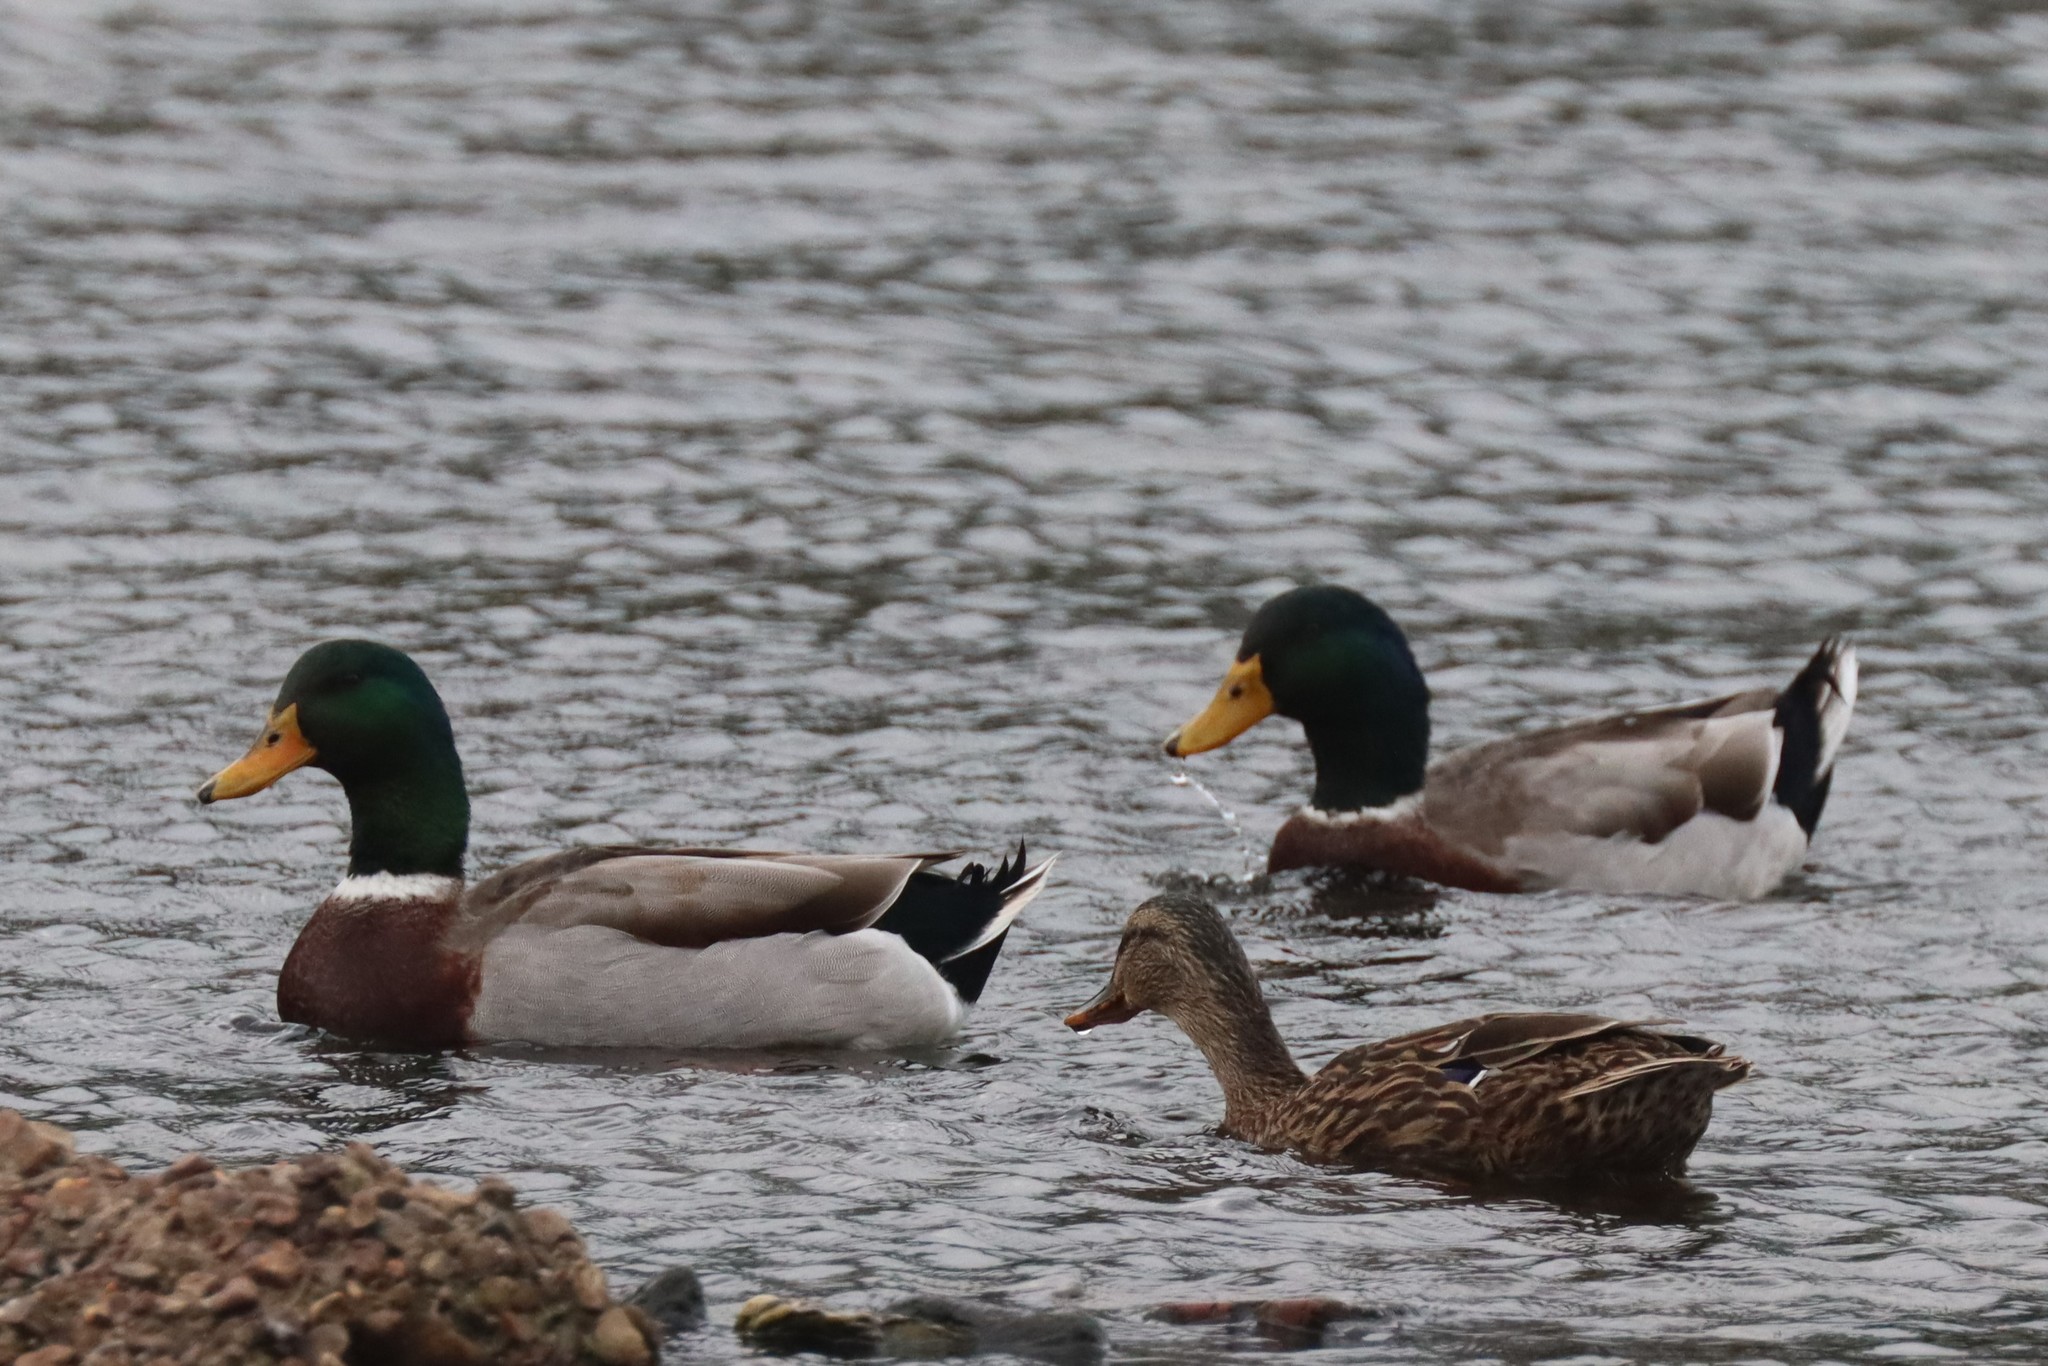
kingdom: Animalia
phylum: Chordata
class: Aves
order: Anseriformes
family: Anatidae
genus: Anas
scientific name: Anas platyrhynchos
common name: Mallard
